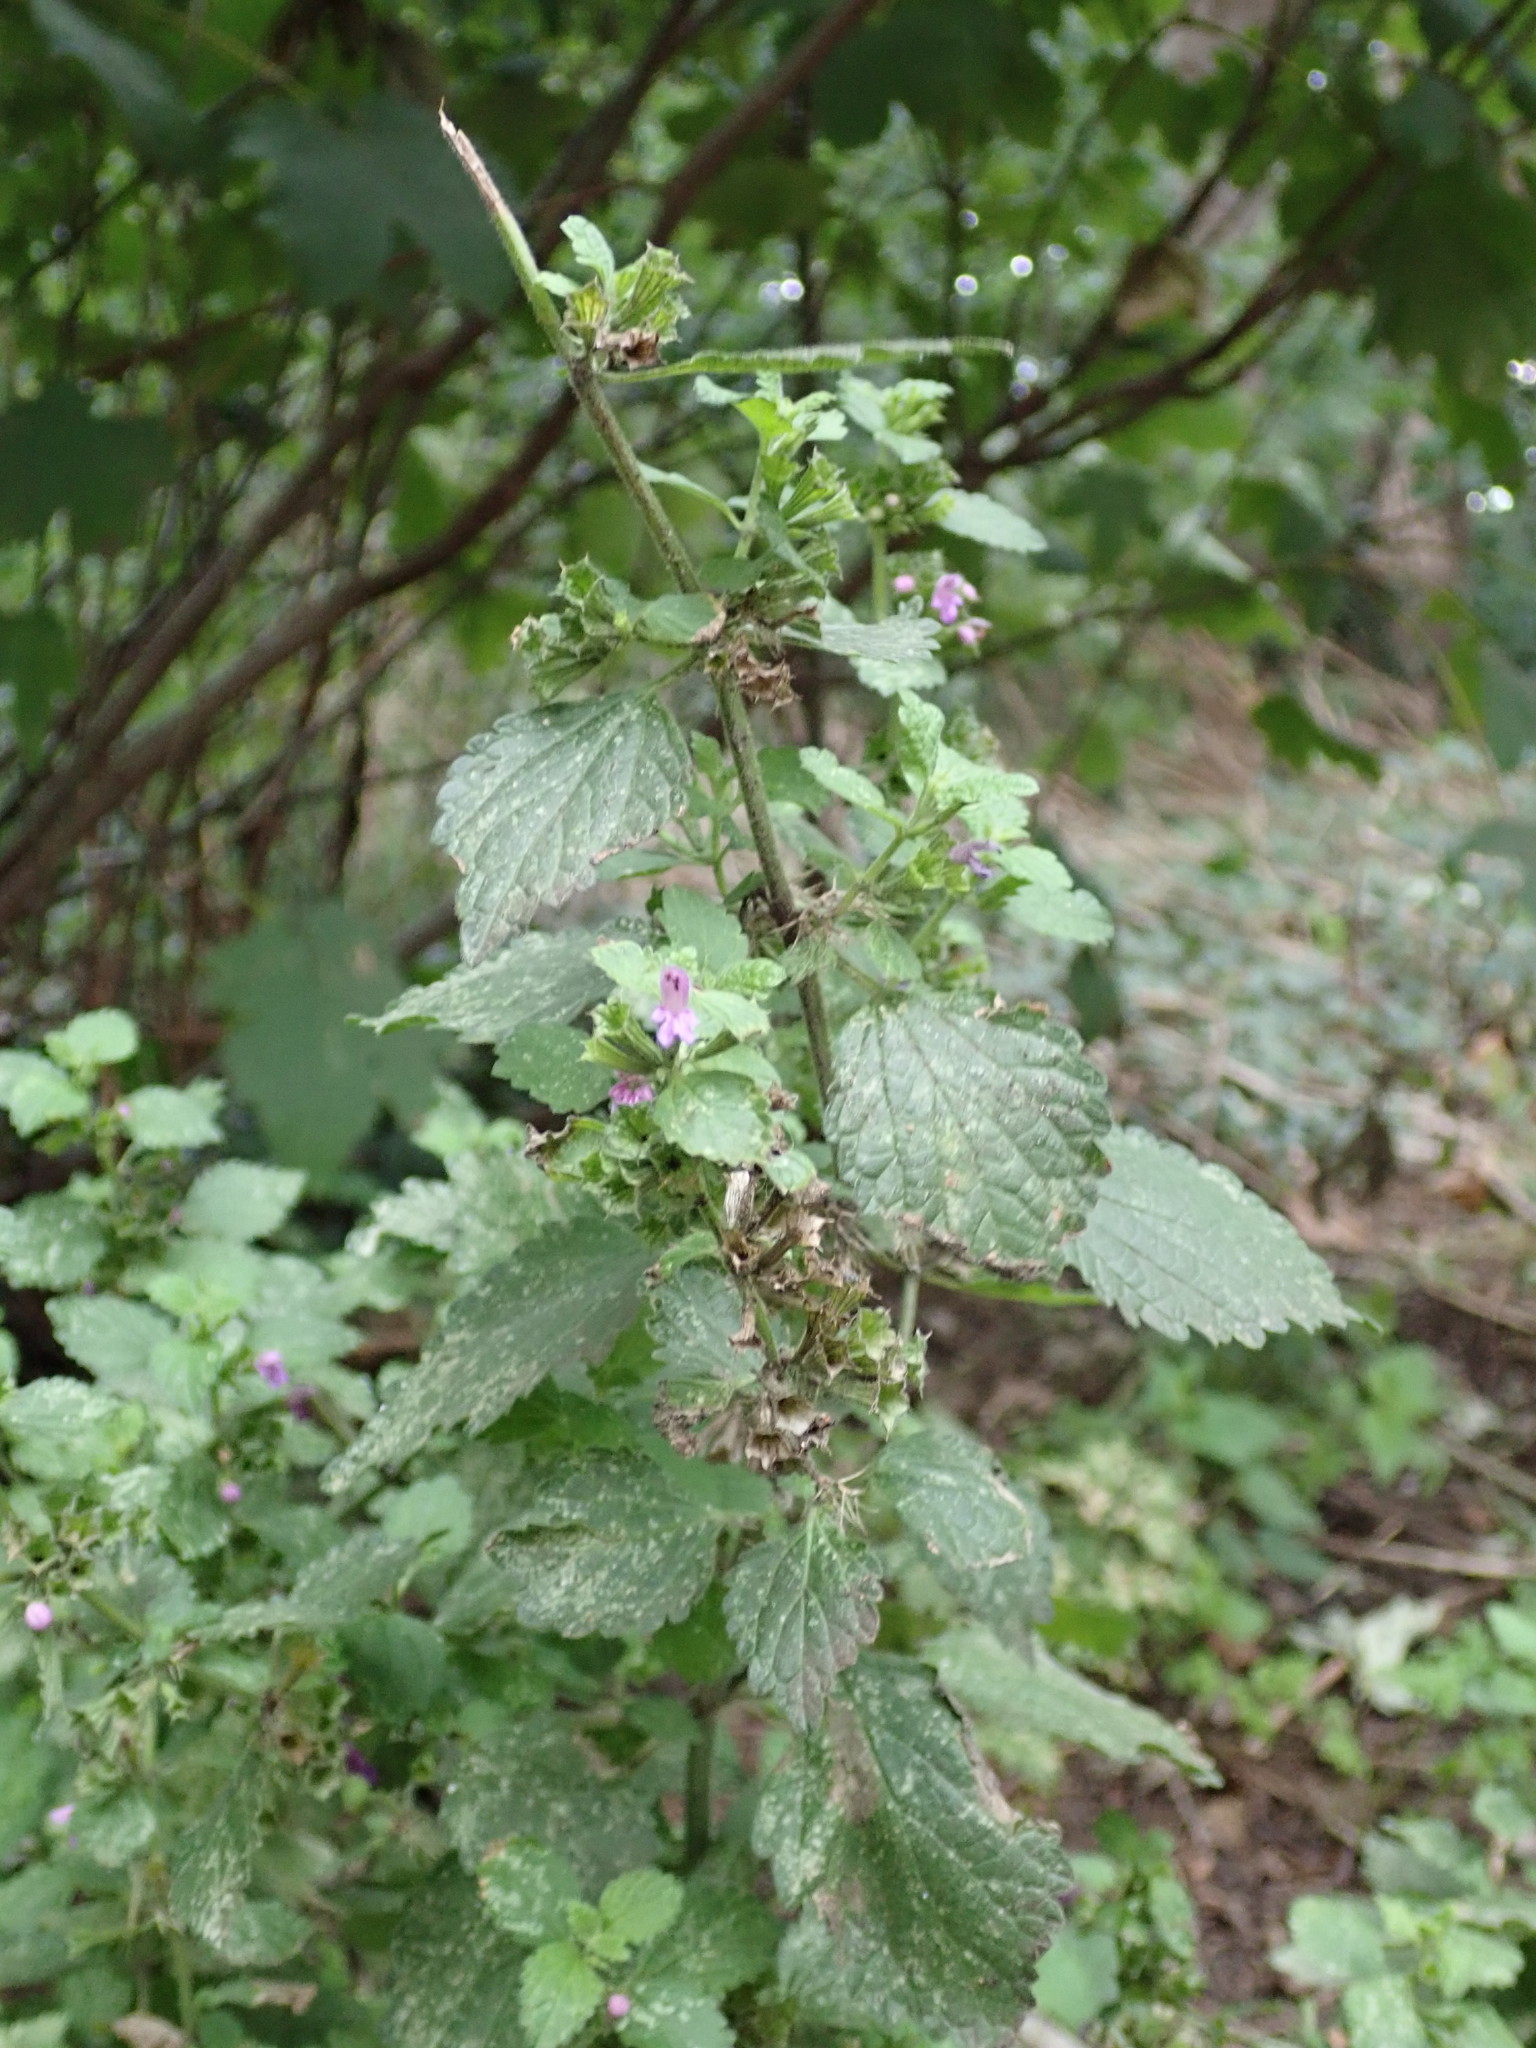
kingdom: Plantae
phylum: Tracheophyta
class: Magnoliopsida
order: Lamiales
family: Lamiaceae
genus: Ballota
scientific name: Ballota nigra
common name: Black horehound
